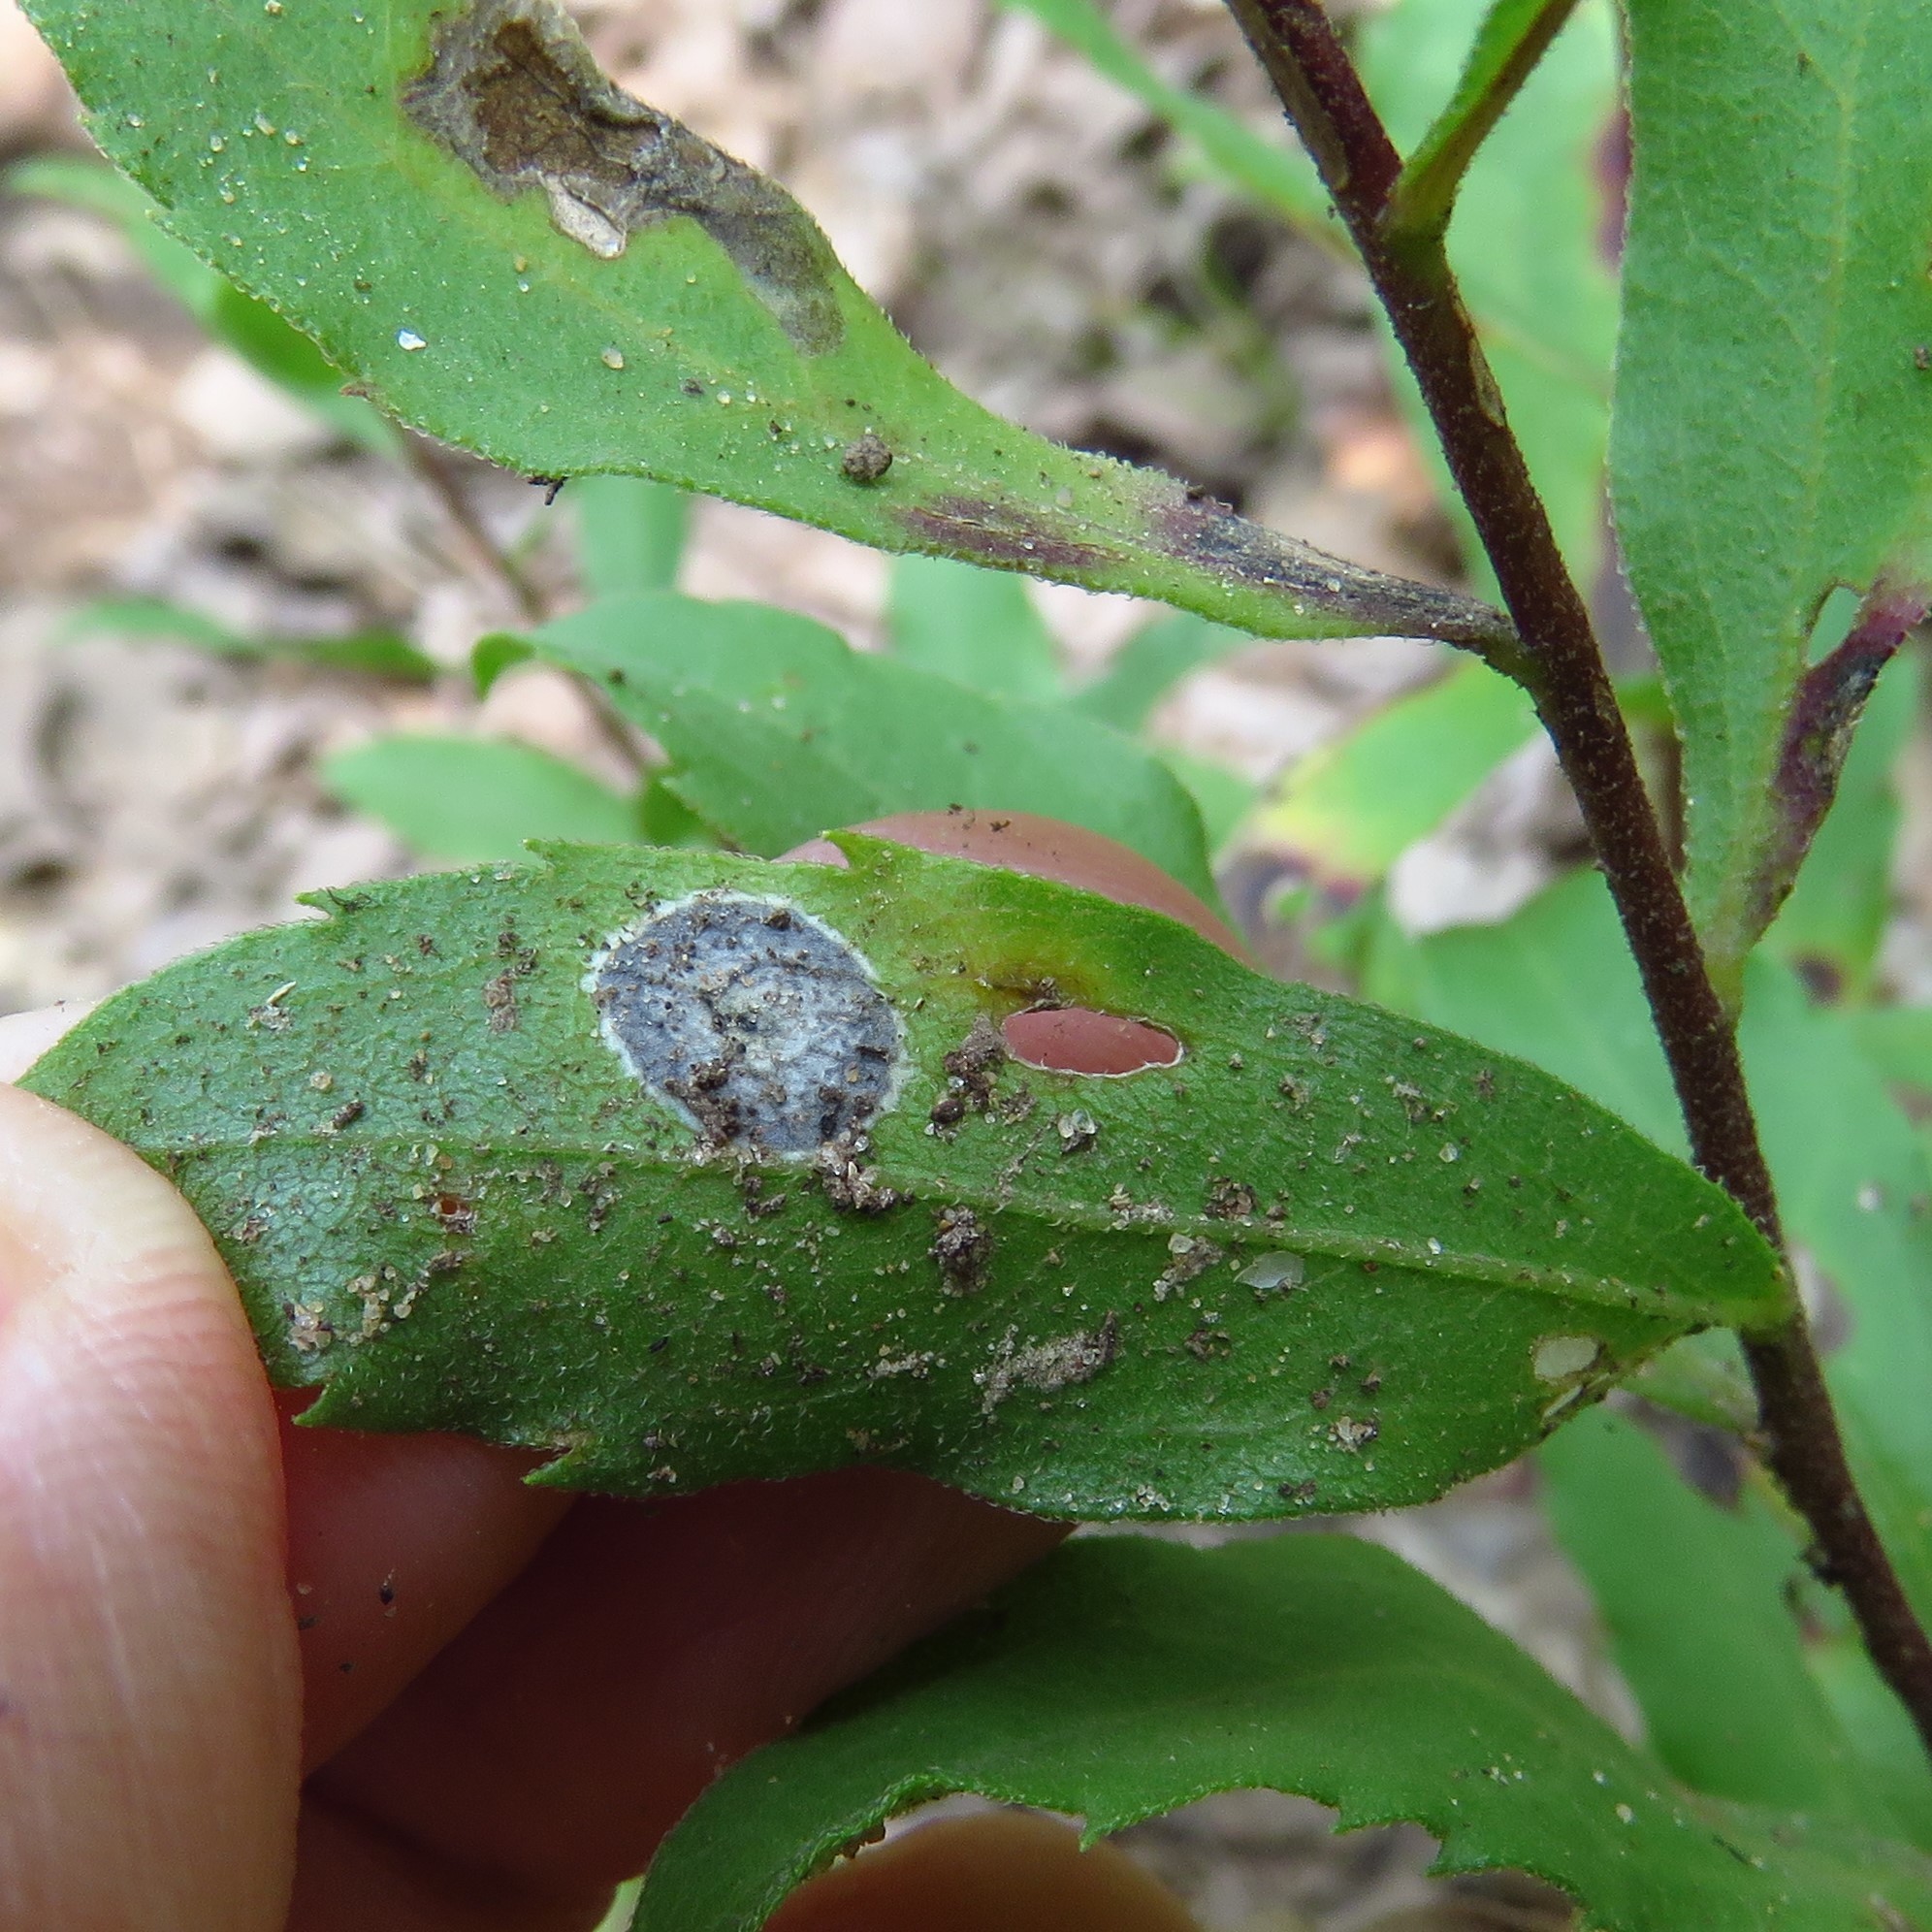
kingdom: Animalia
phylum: Arthropoda
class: Insecta
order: Diptera
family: Cecidomyiidae
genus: Asteromyia
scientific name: Asteromyia carbonifera
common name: Carbonifera goldenrod gall midge
